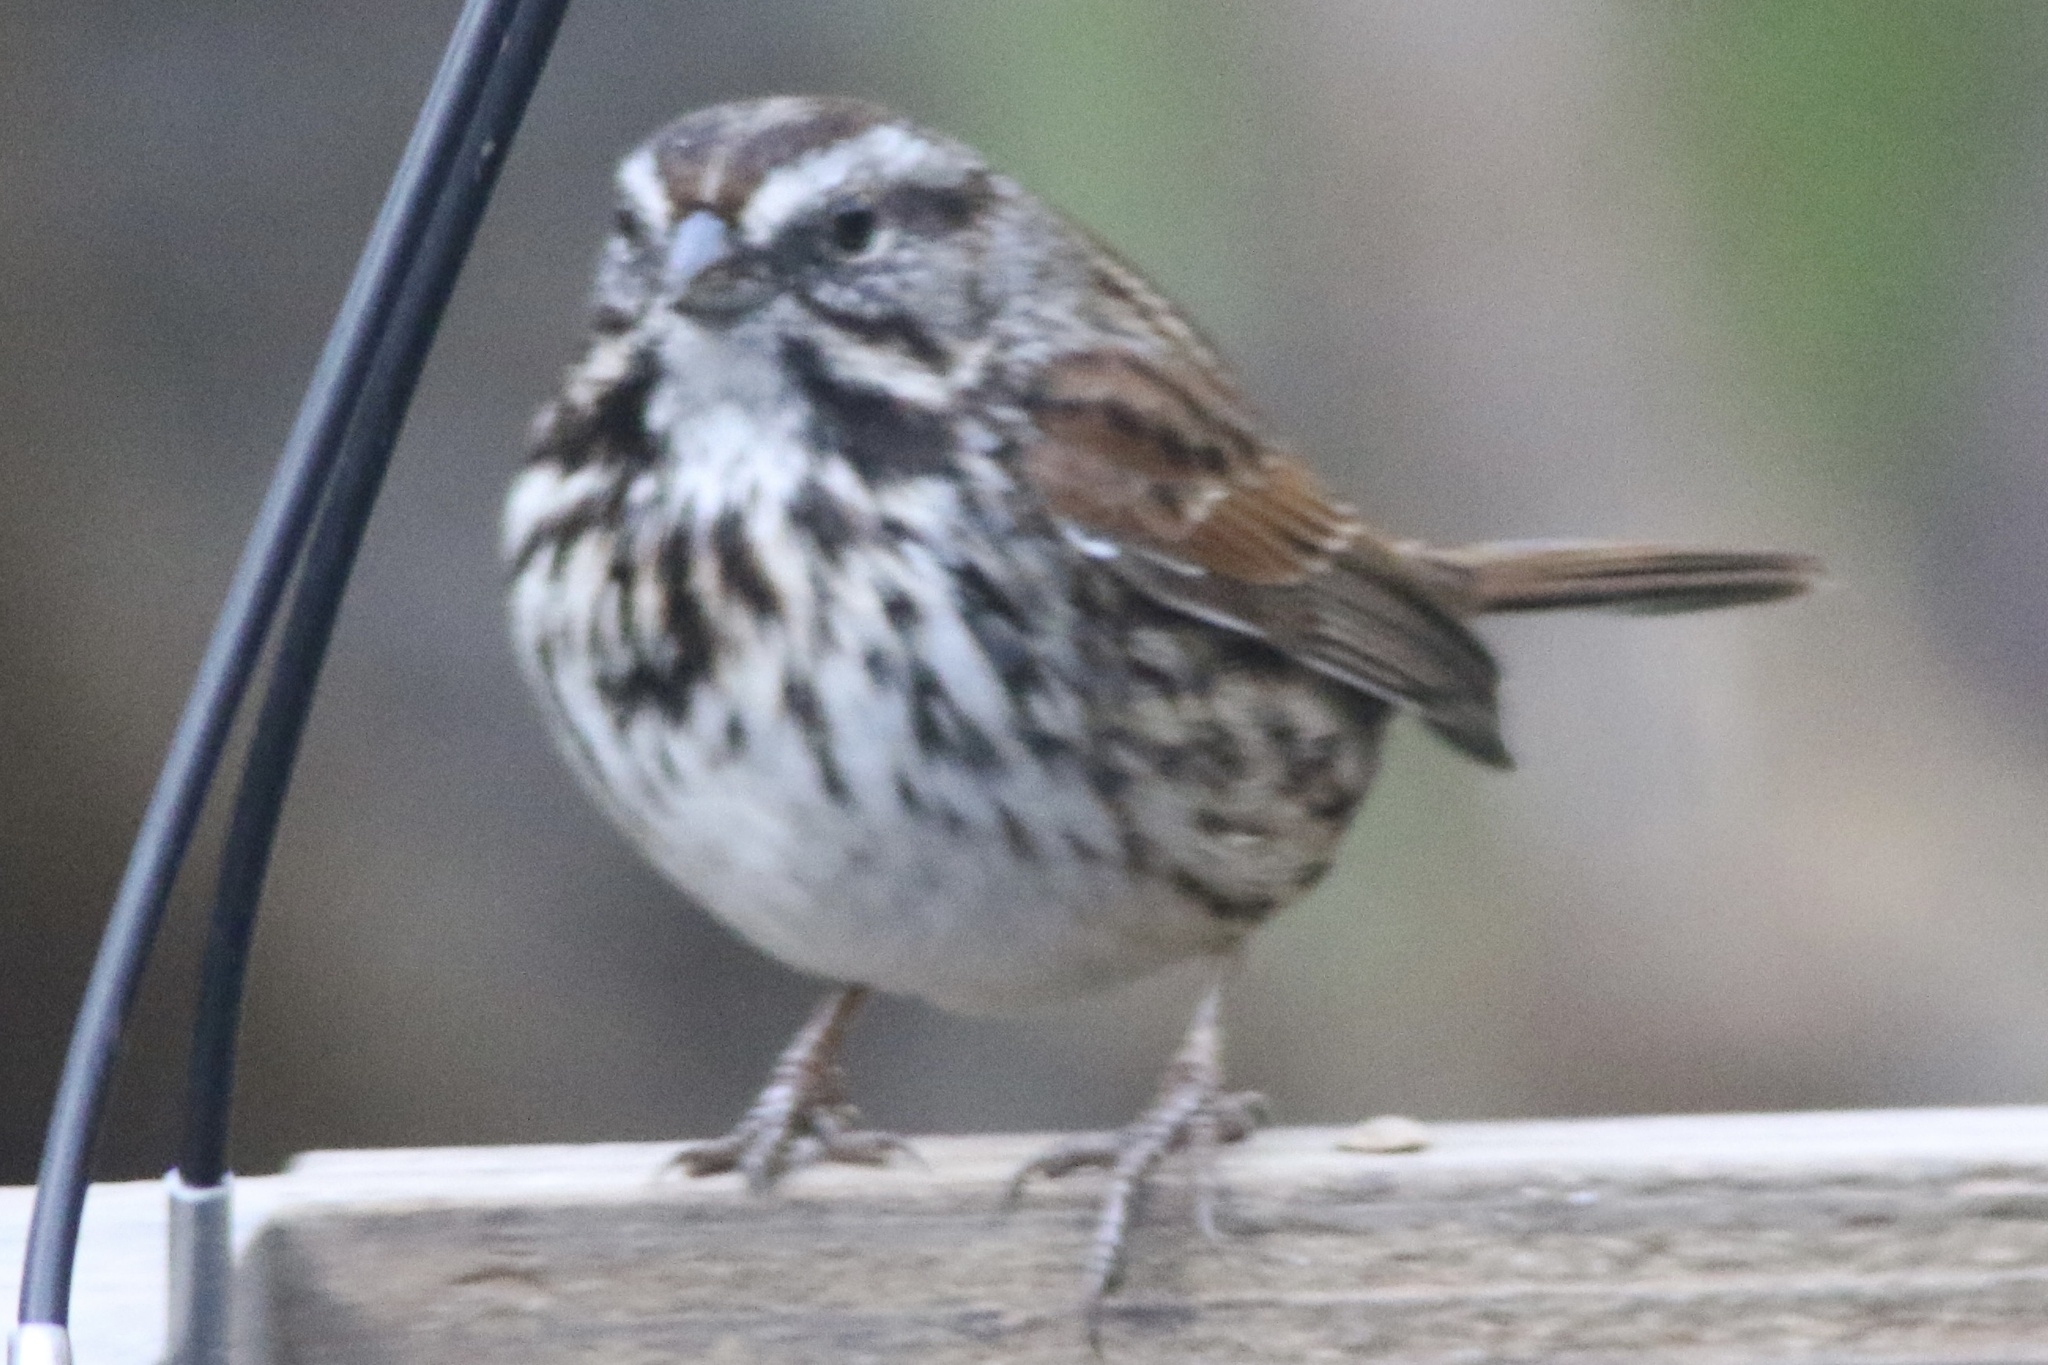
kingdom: Animalia
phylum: Chordata
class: Aves
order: Passeriformes
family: Passerellidae
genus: Melospiza
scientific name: Melospiza melodia
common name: Song sparrow
